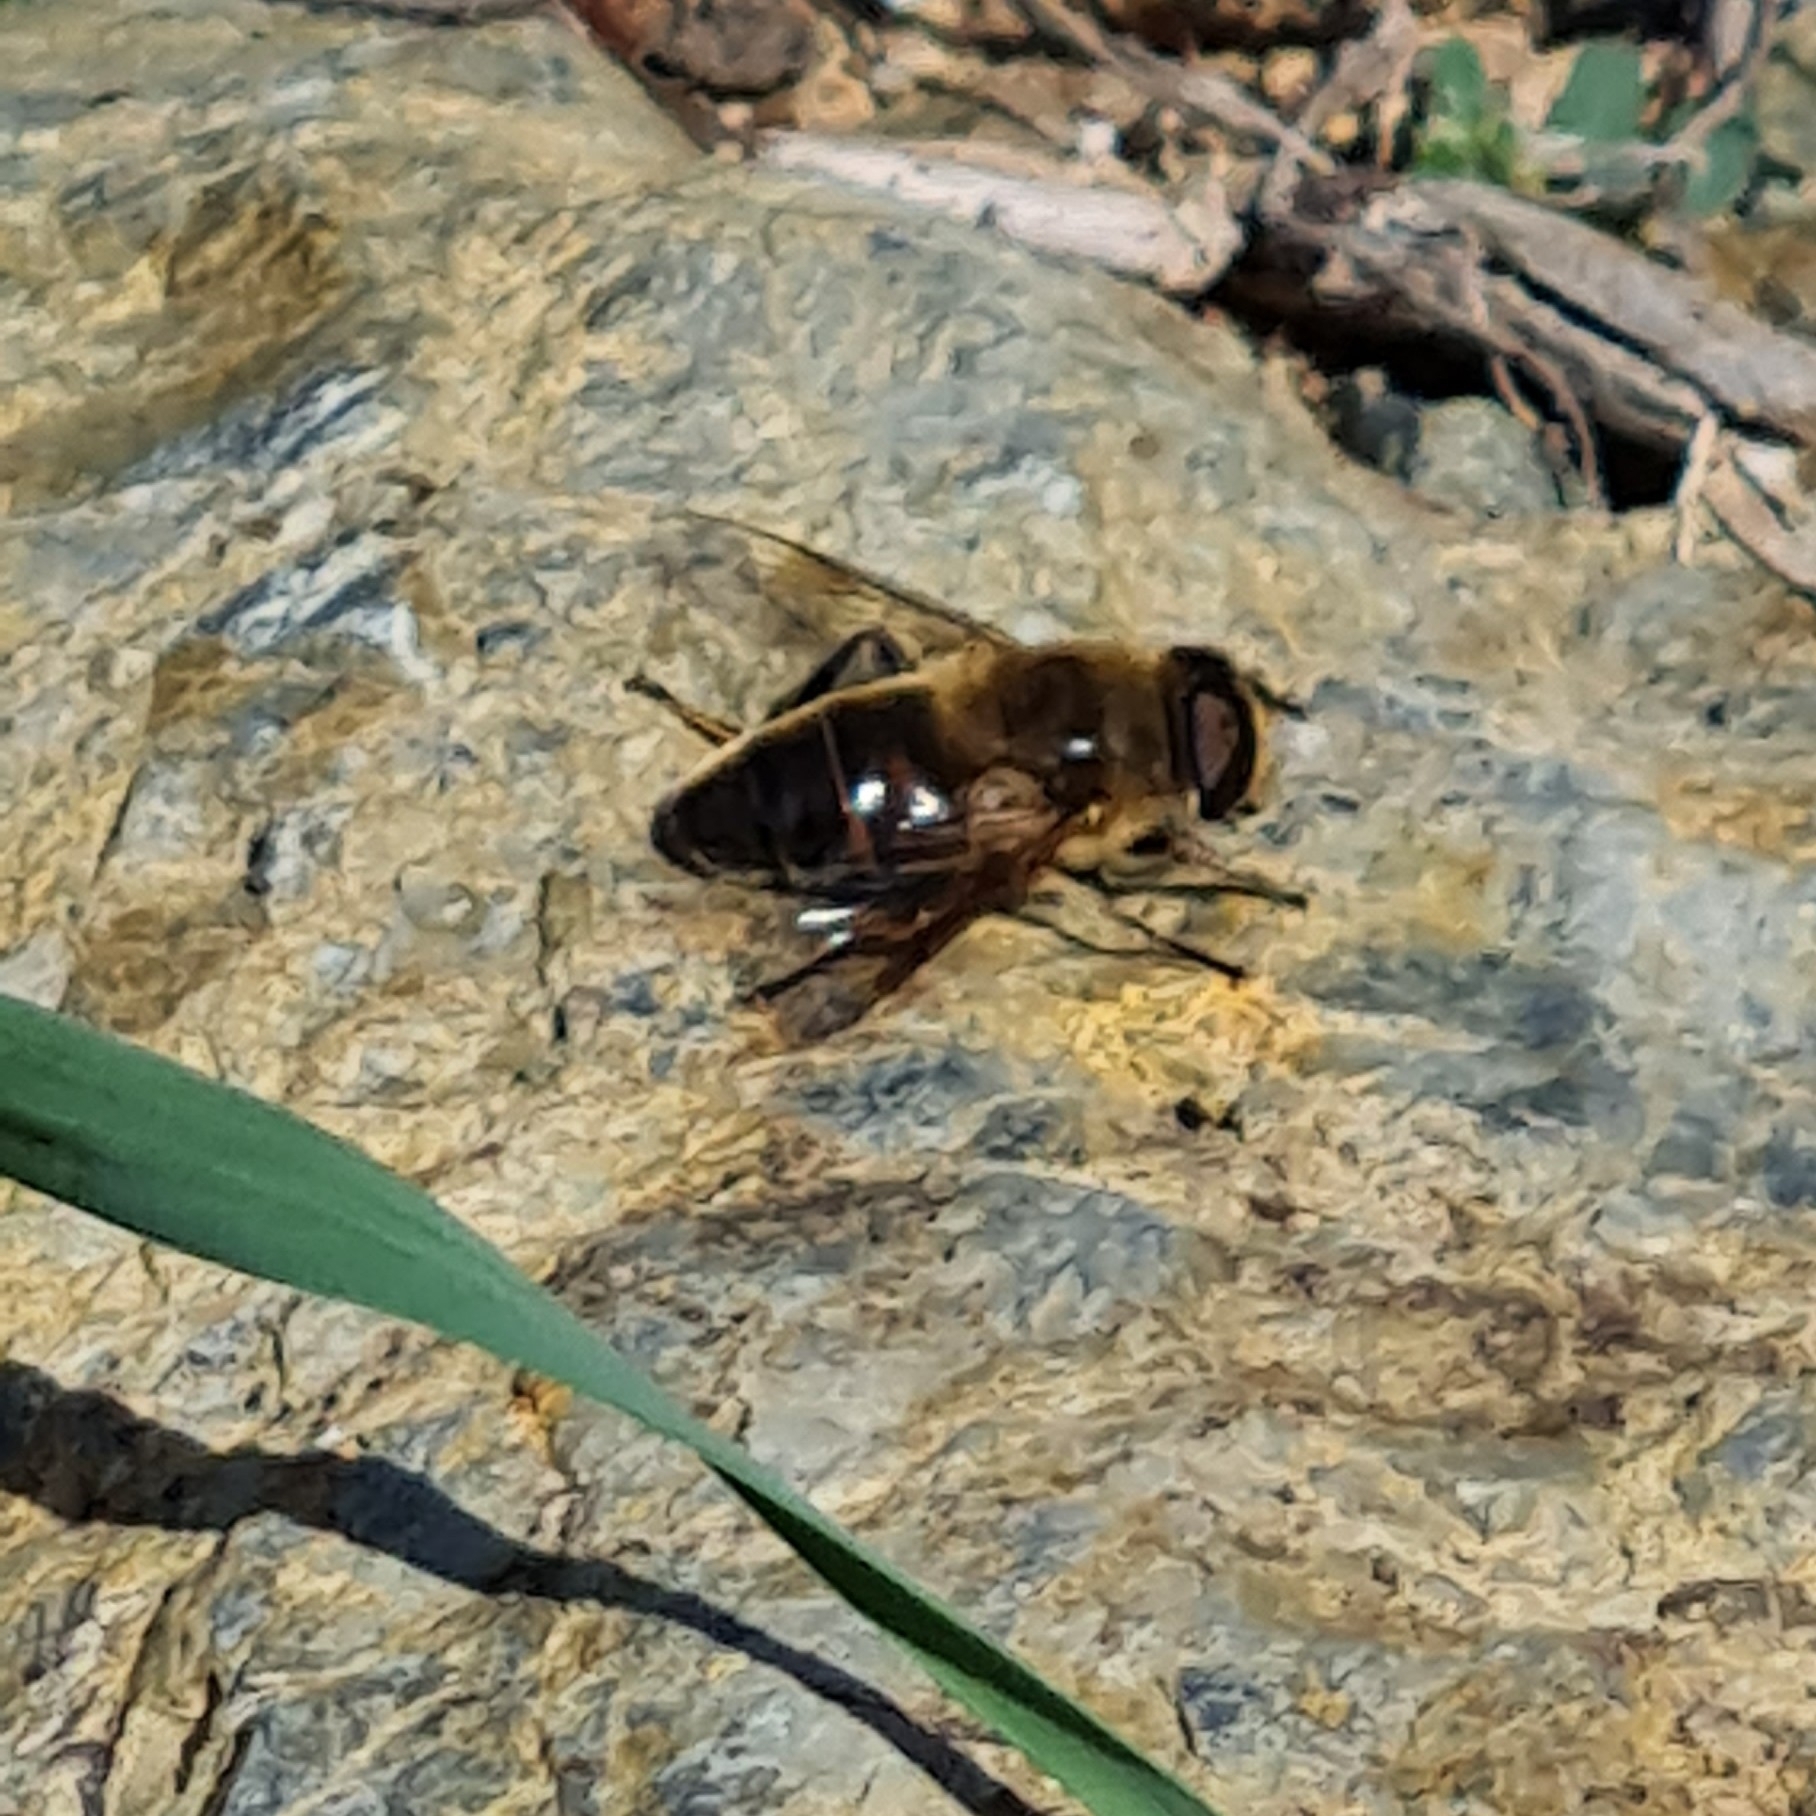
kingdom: Animalia
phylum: Arthropoda
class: Insecta
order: Diptera
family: Syrphidae
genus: Eristalis
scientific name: Eristalis tenax
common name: Drone fly
